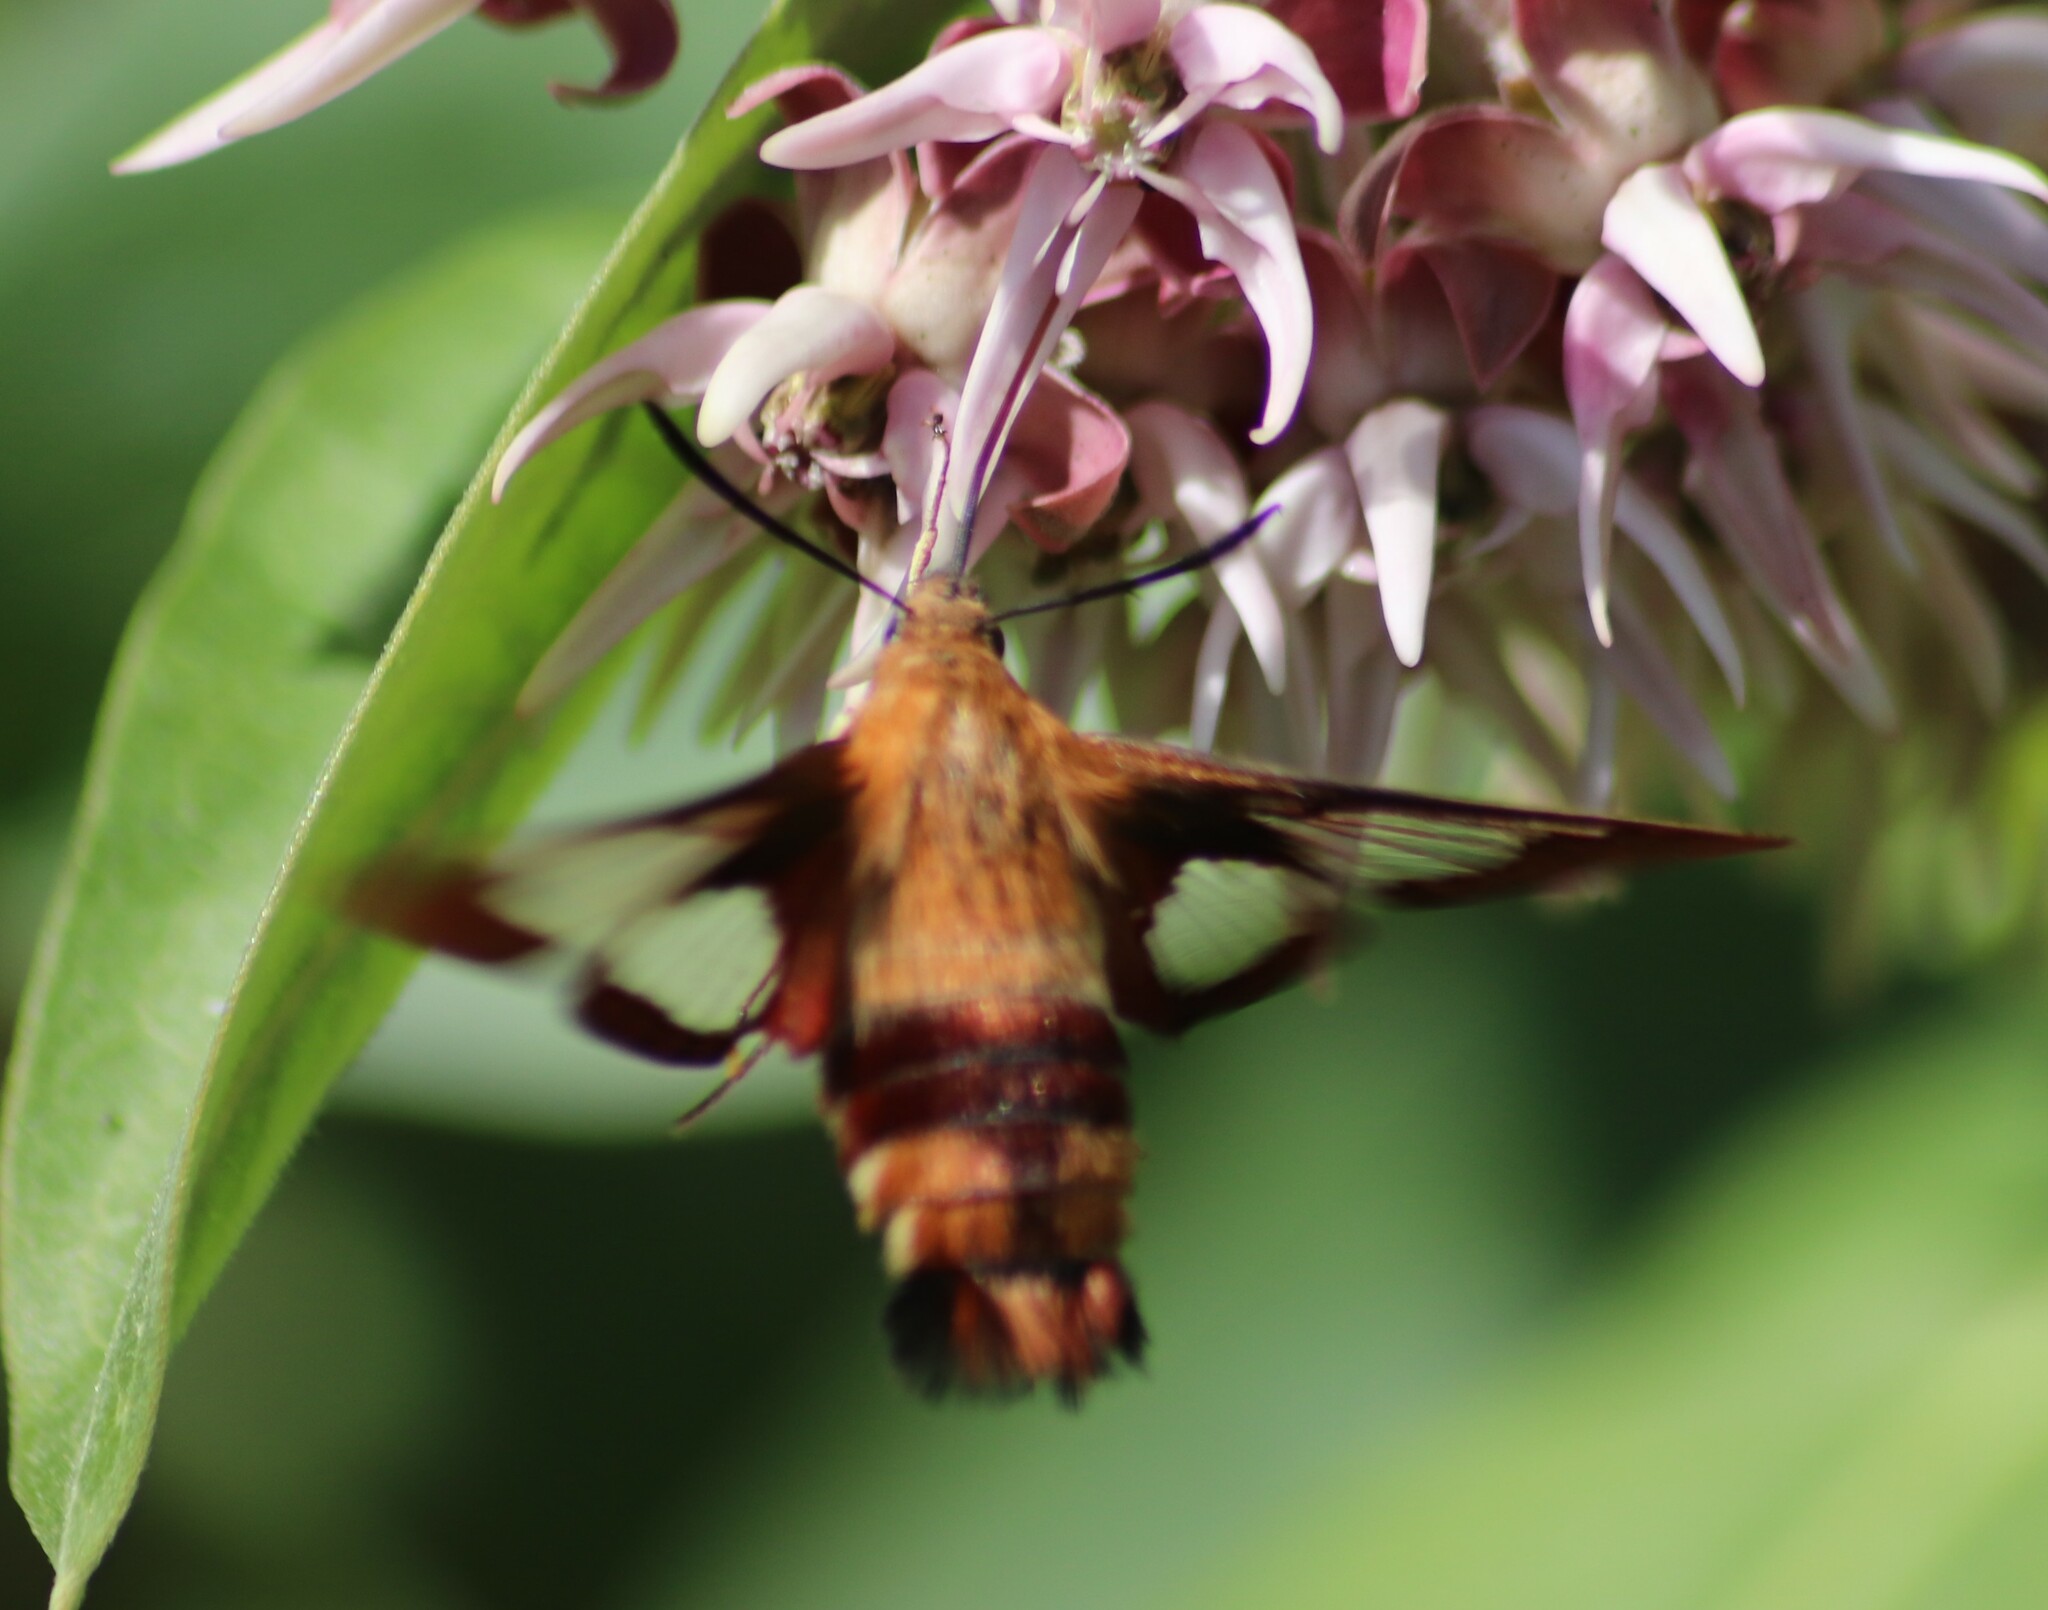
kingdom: Animalia
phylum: Arthropoda
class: Insecta
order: Lepidoptera
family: Sphingidae
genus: Hemaris
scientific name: Hemaris thysbe
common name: Common clear-wing
